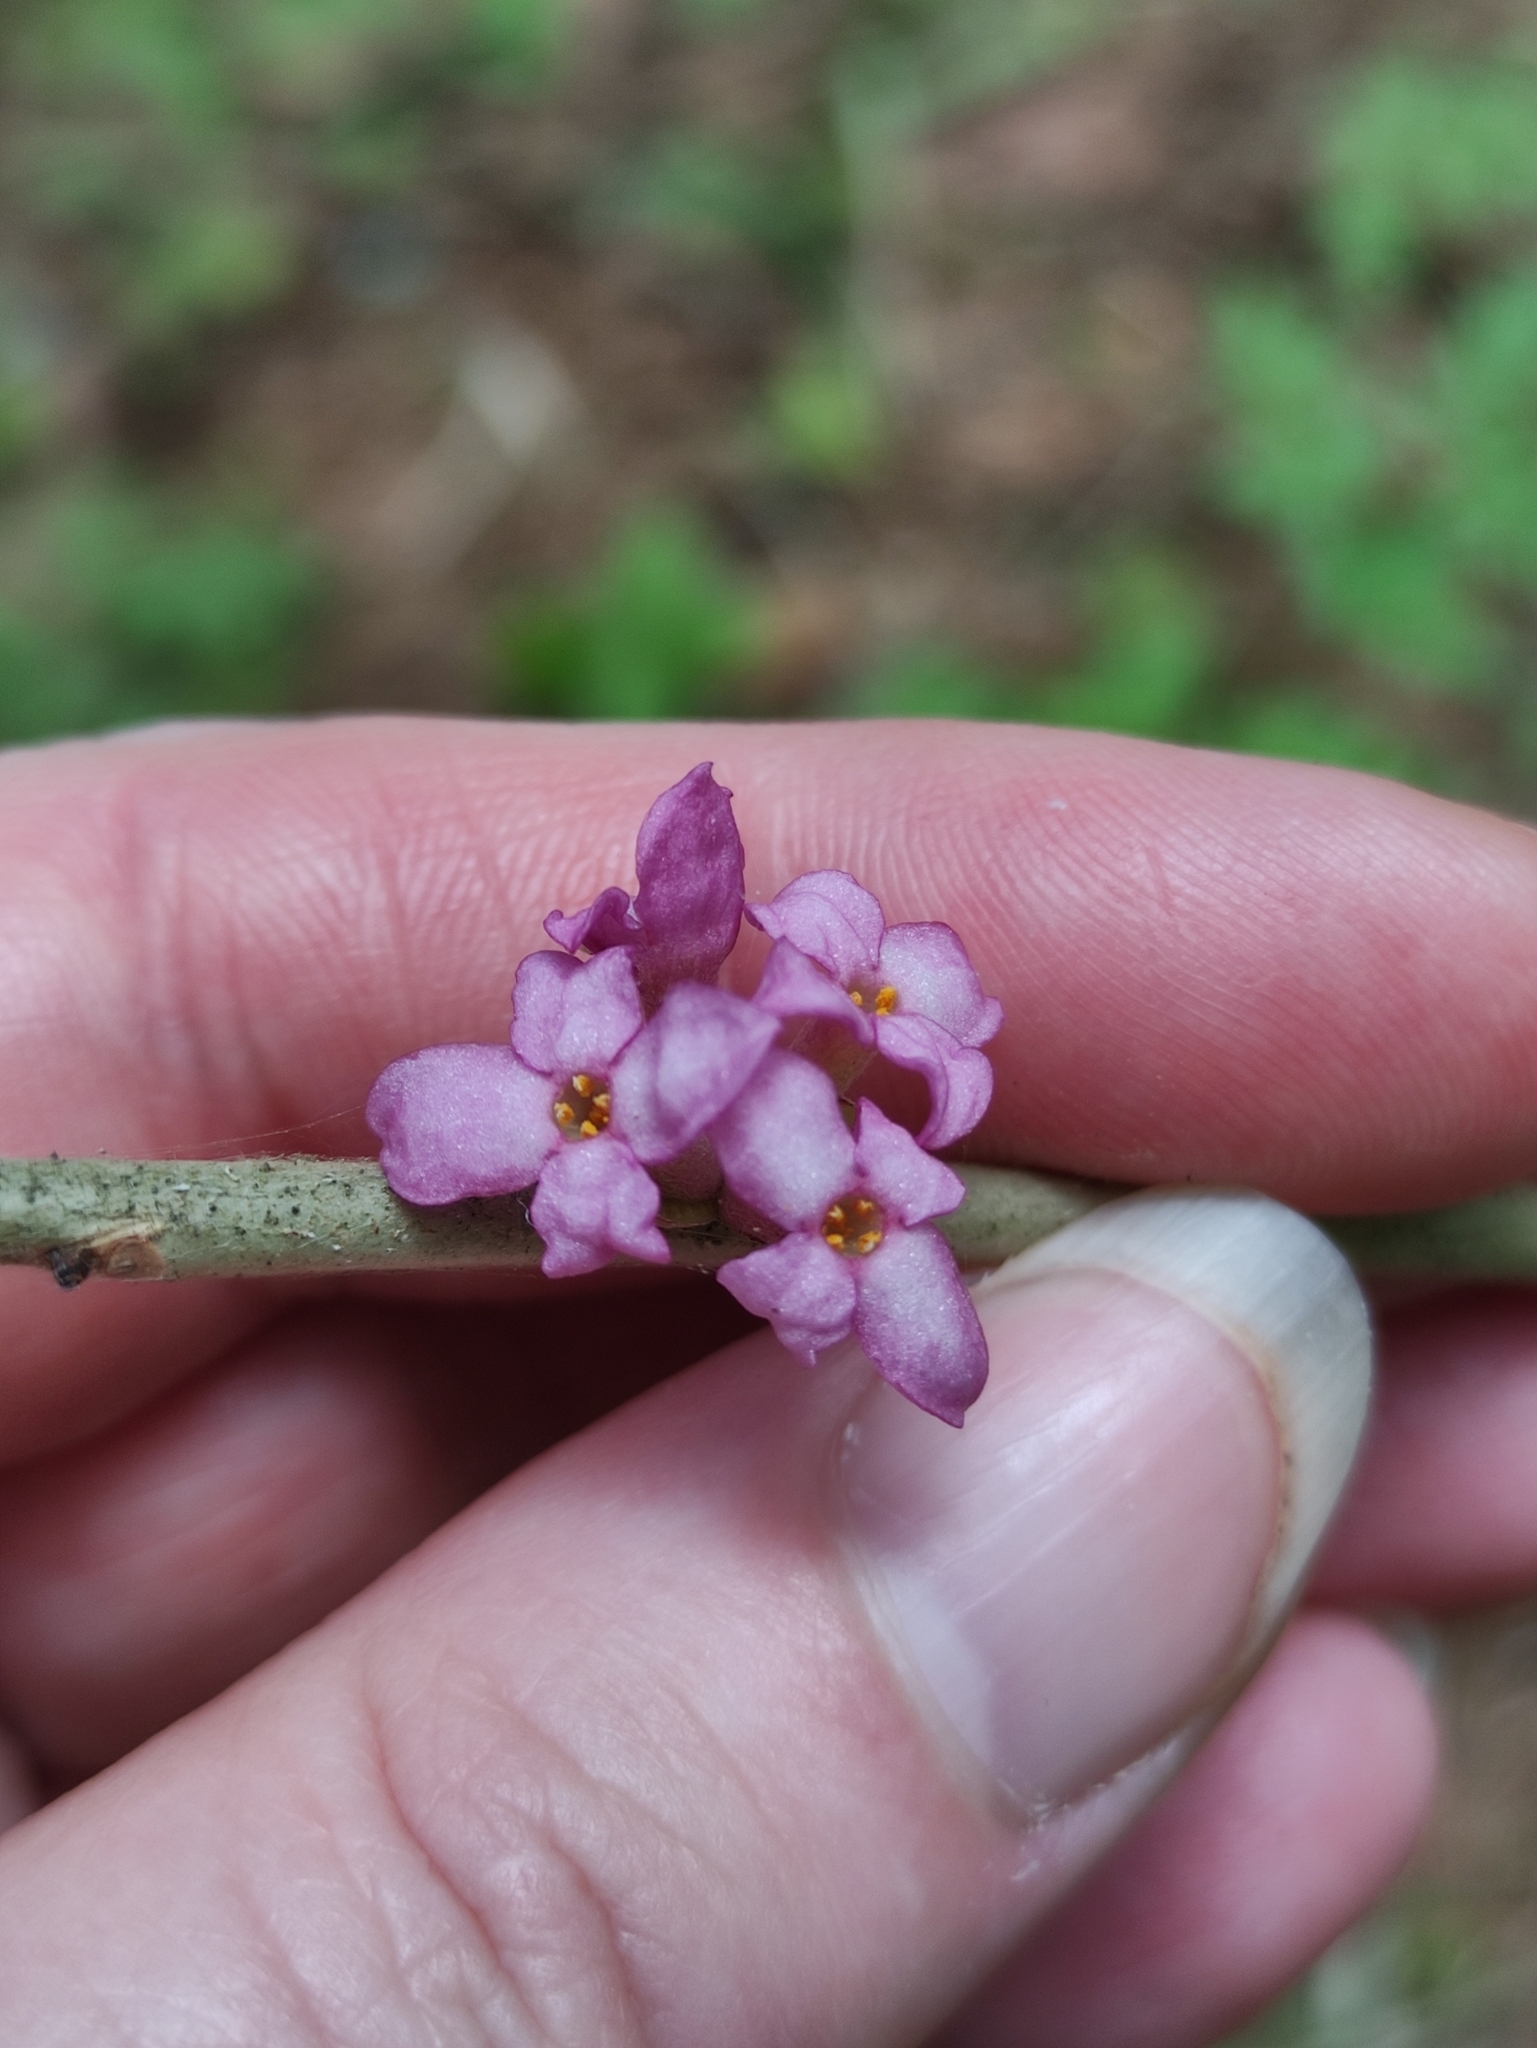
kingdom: Plantae
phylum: Tracheophyta
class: Magnoliopsida
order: Malvales
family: Thymelaeaceae
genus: Daphne
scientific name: Daphne mezereum
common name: Mezereon
